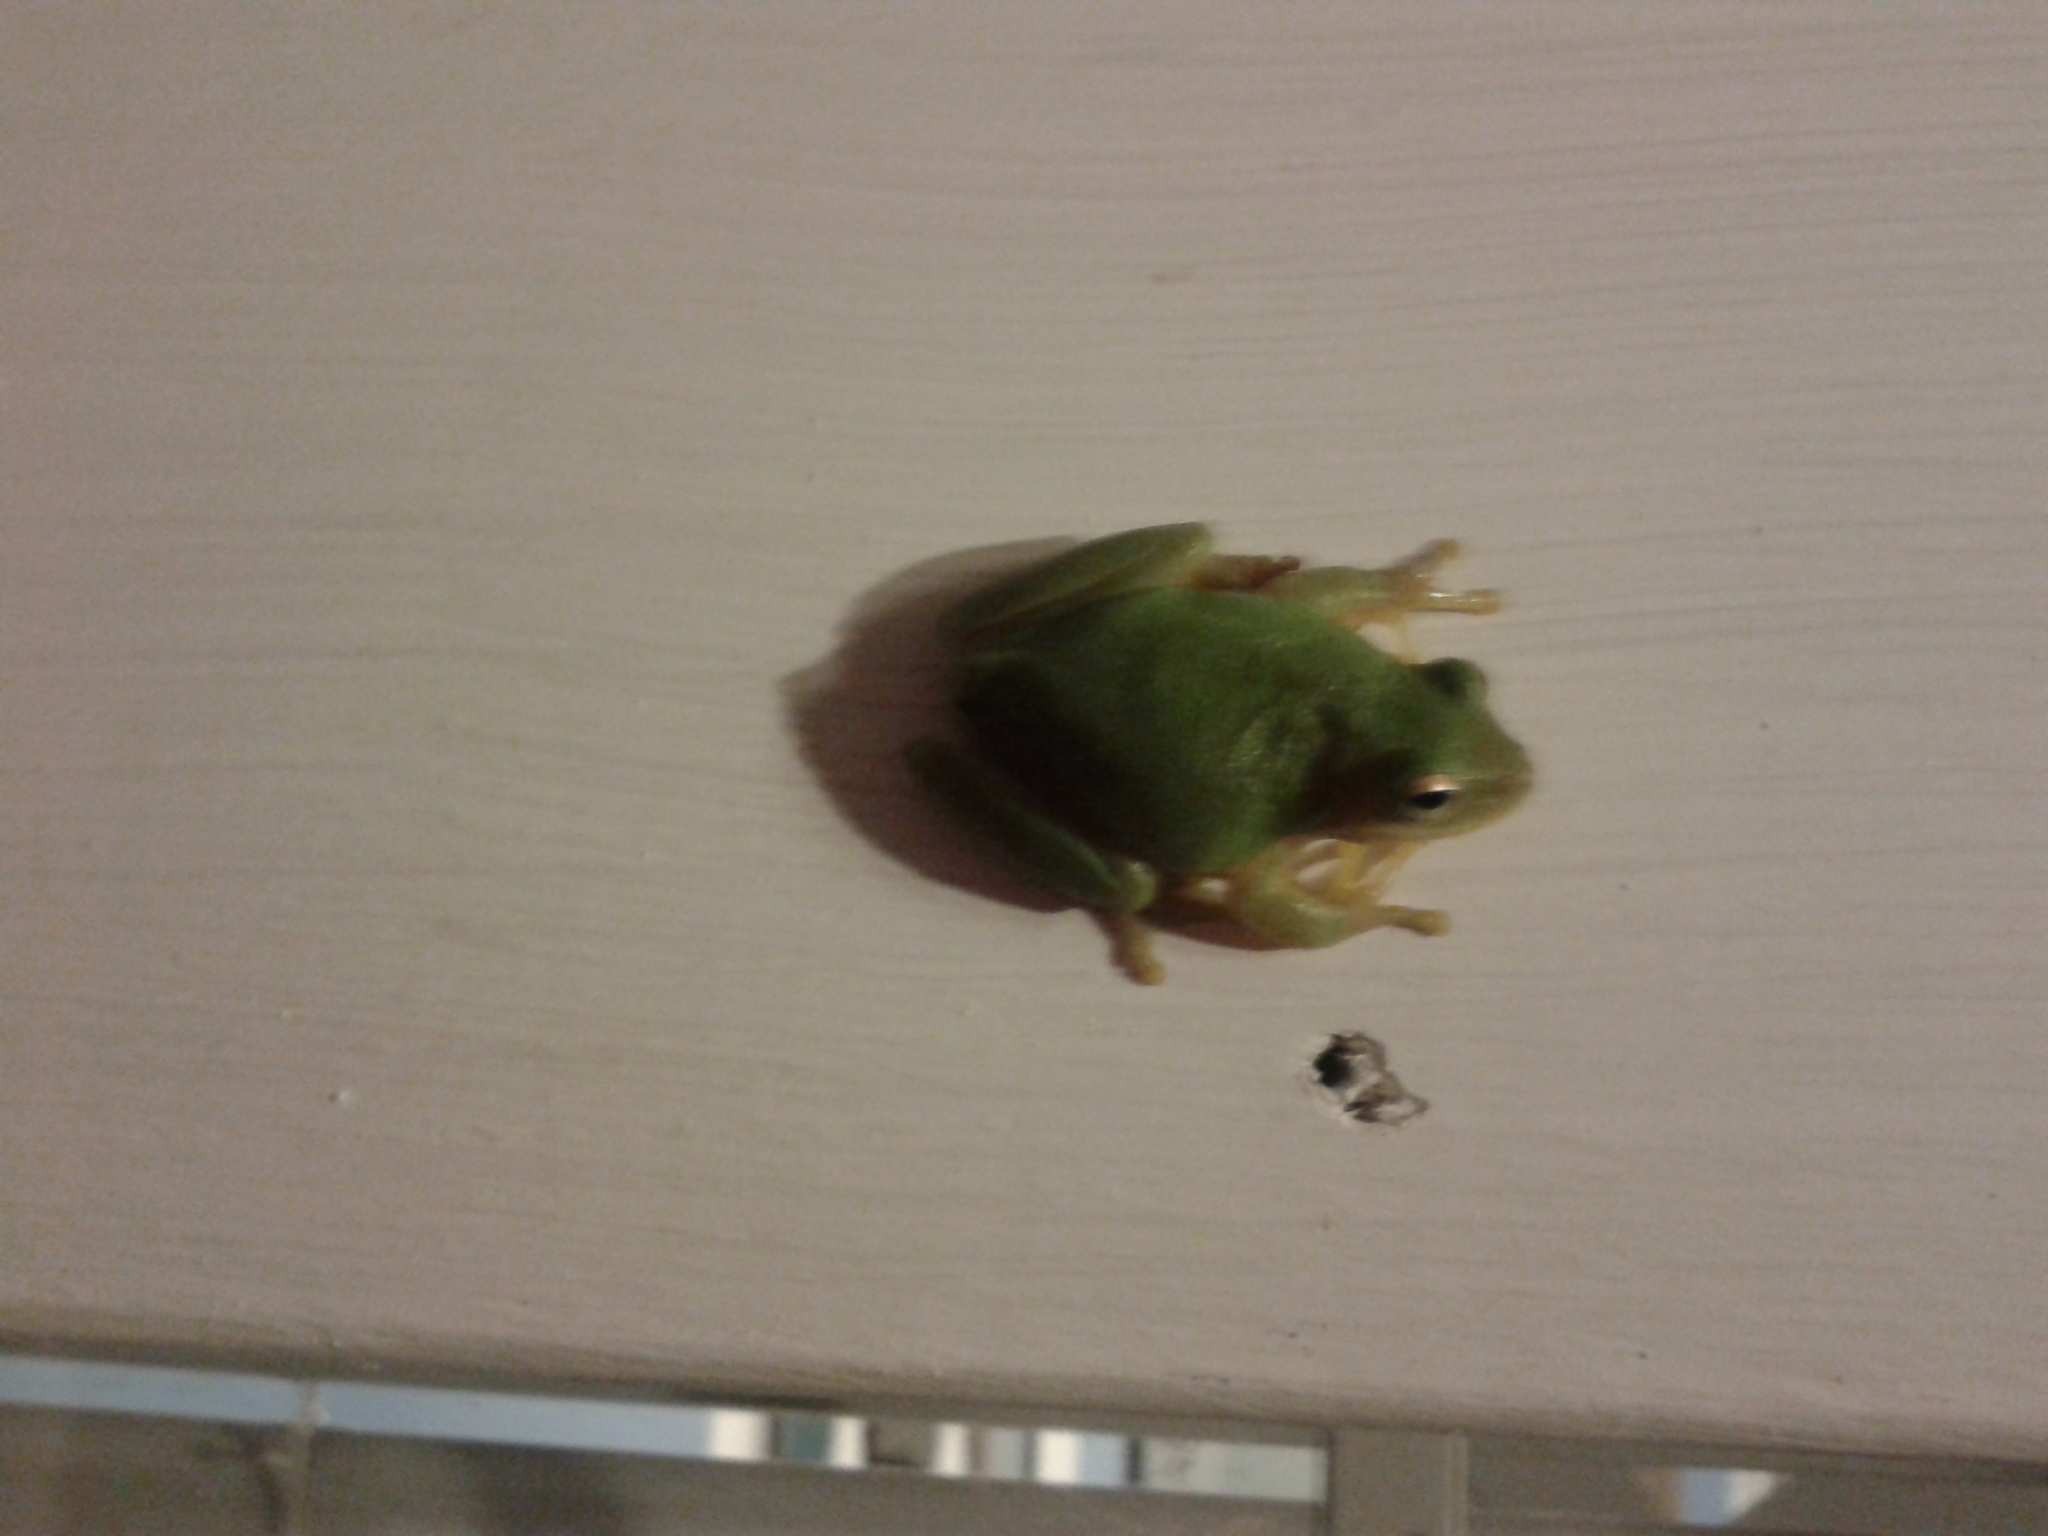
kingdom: Animalia
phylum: Chordata
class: Amphibia
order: Anura
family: Hylidae
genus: Dryophytes
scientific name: Dryophytes squirellus
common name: Squirrel treefrog
